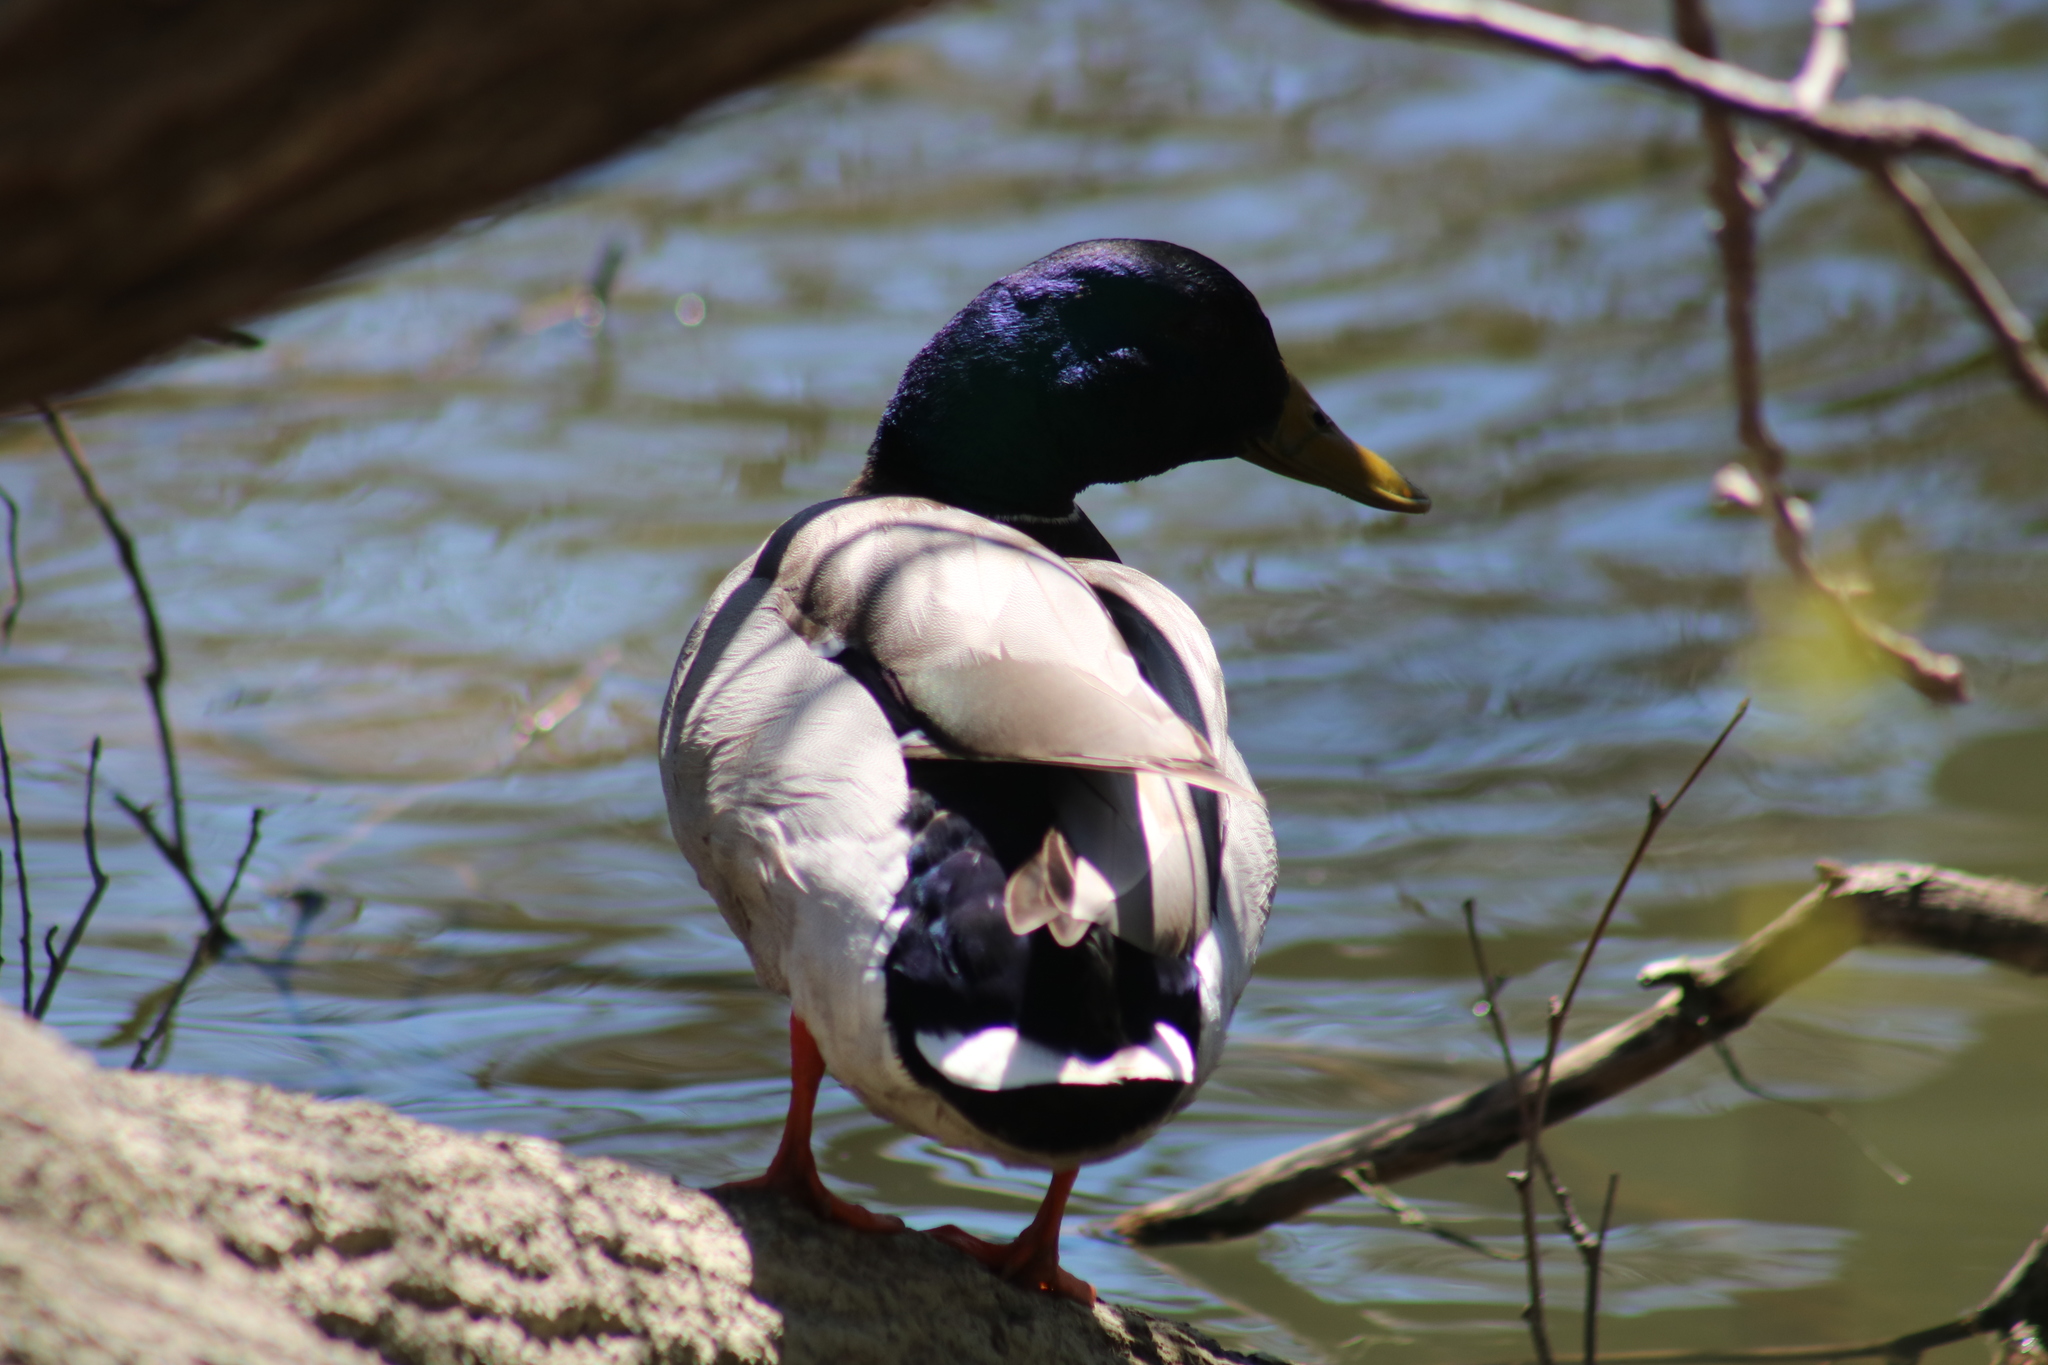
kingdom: Animalia
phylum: Chordata
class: Aves
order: Anseriformes
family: Anatidae
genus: Anas
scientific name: Anas platyrhynchos
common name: Mallard
